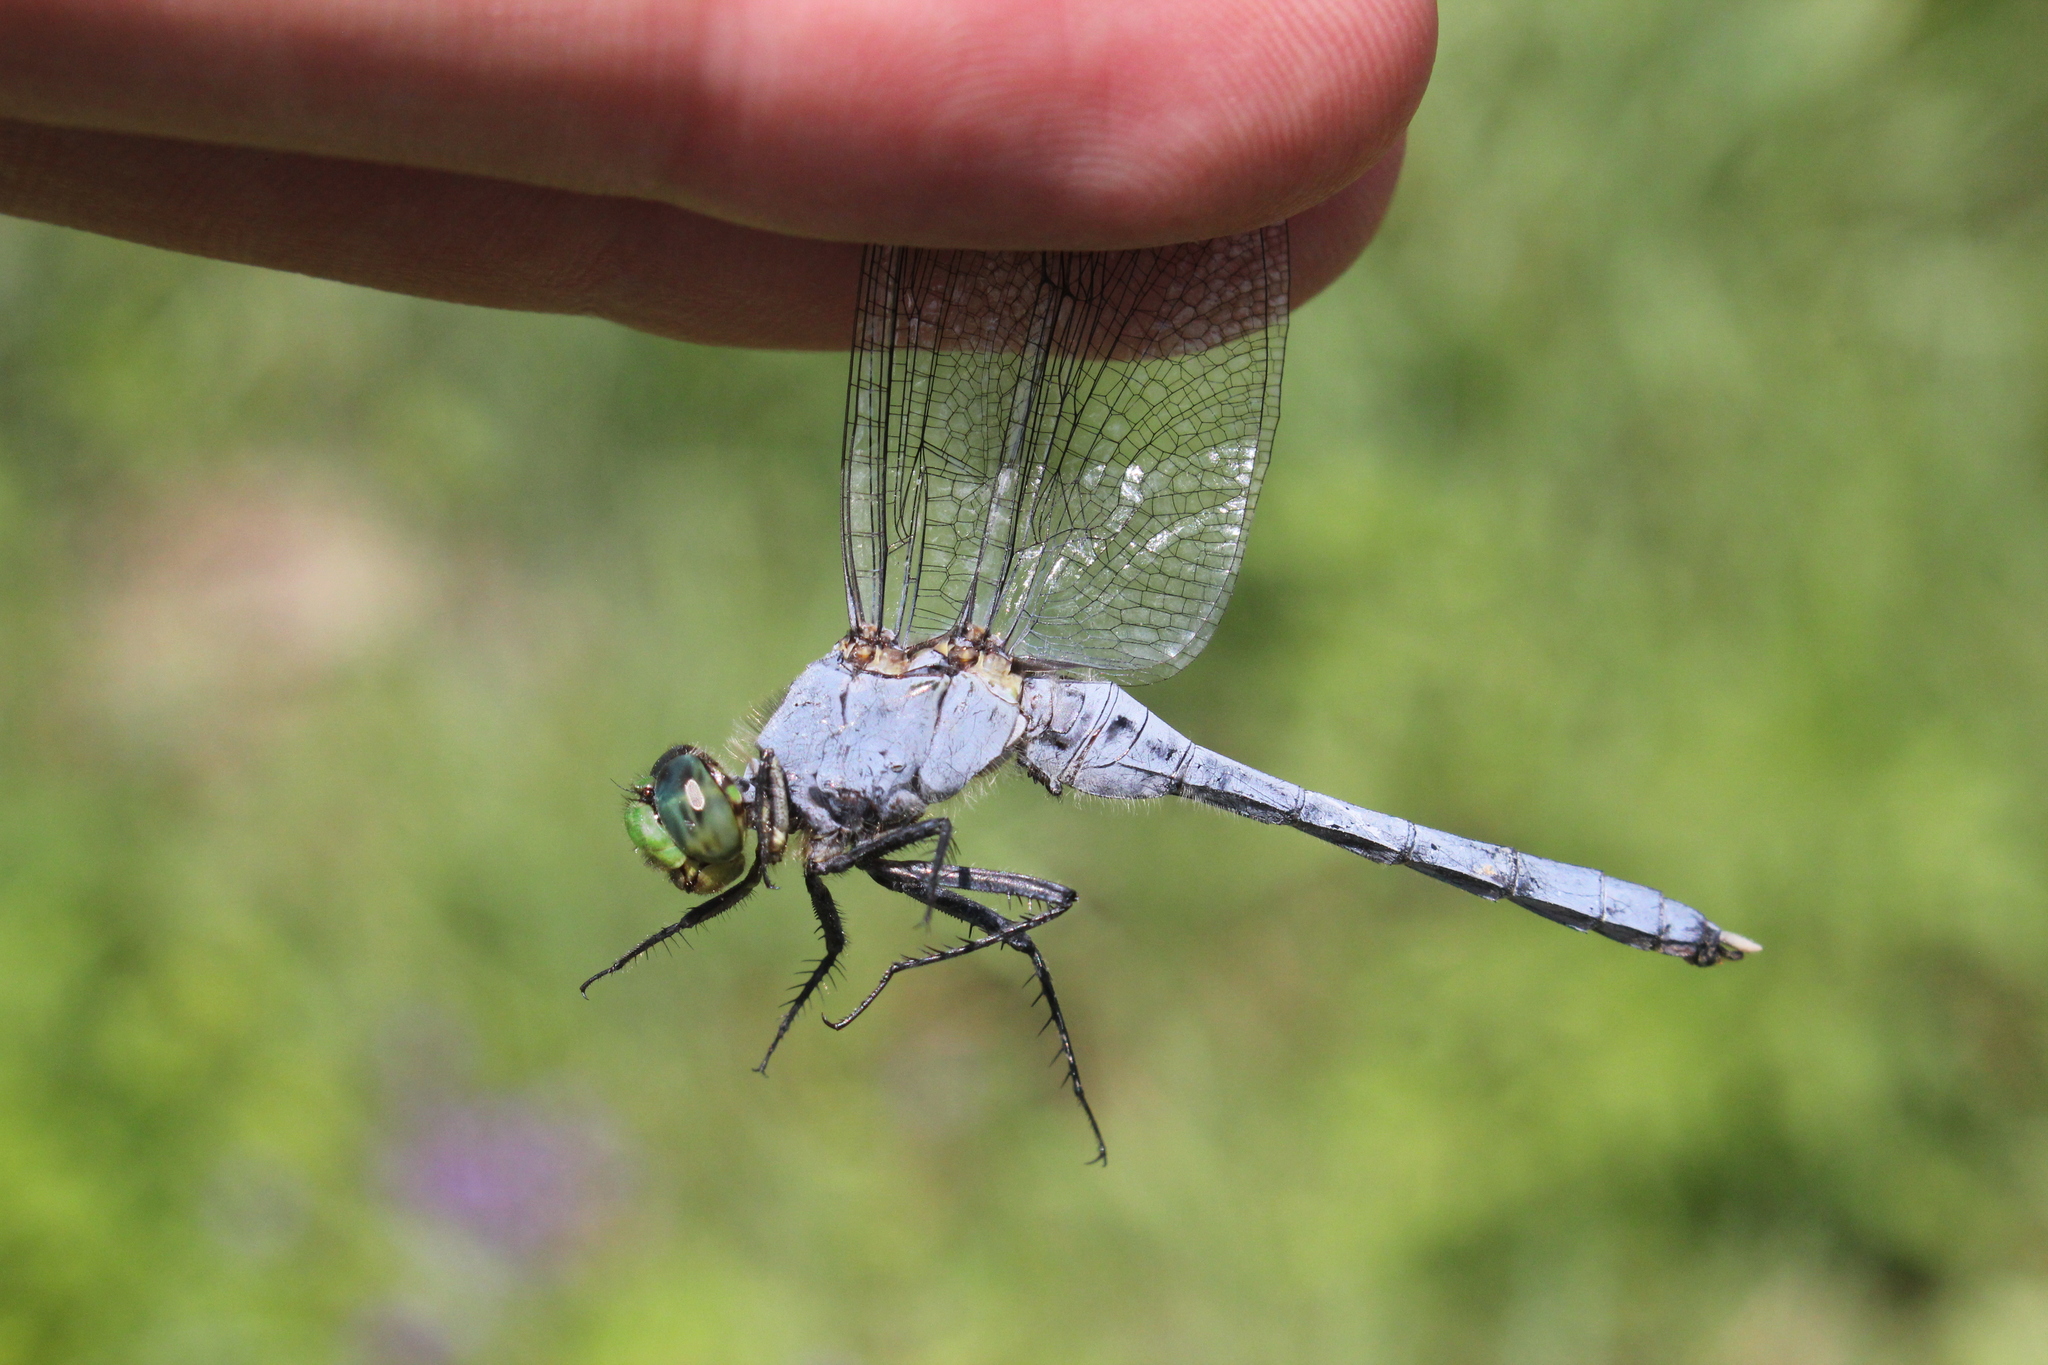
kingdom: Animalia
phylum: Arthropoda
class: Insecta
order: Odonata
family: Libellulidae
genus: Erythemis
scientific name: Erythemis simplicicollis
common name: Eastern pondhawk
